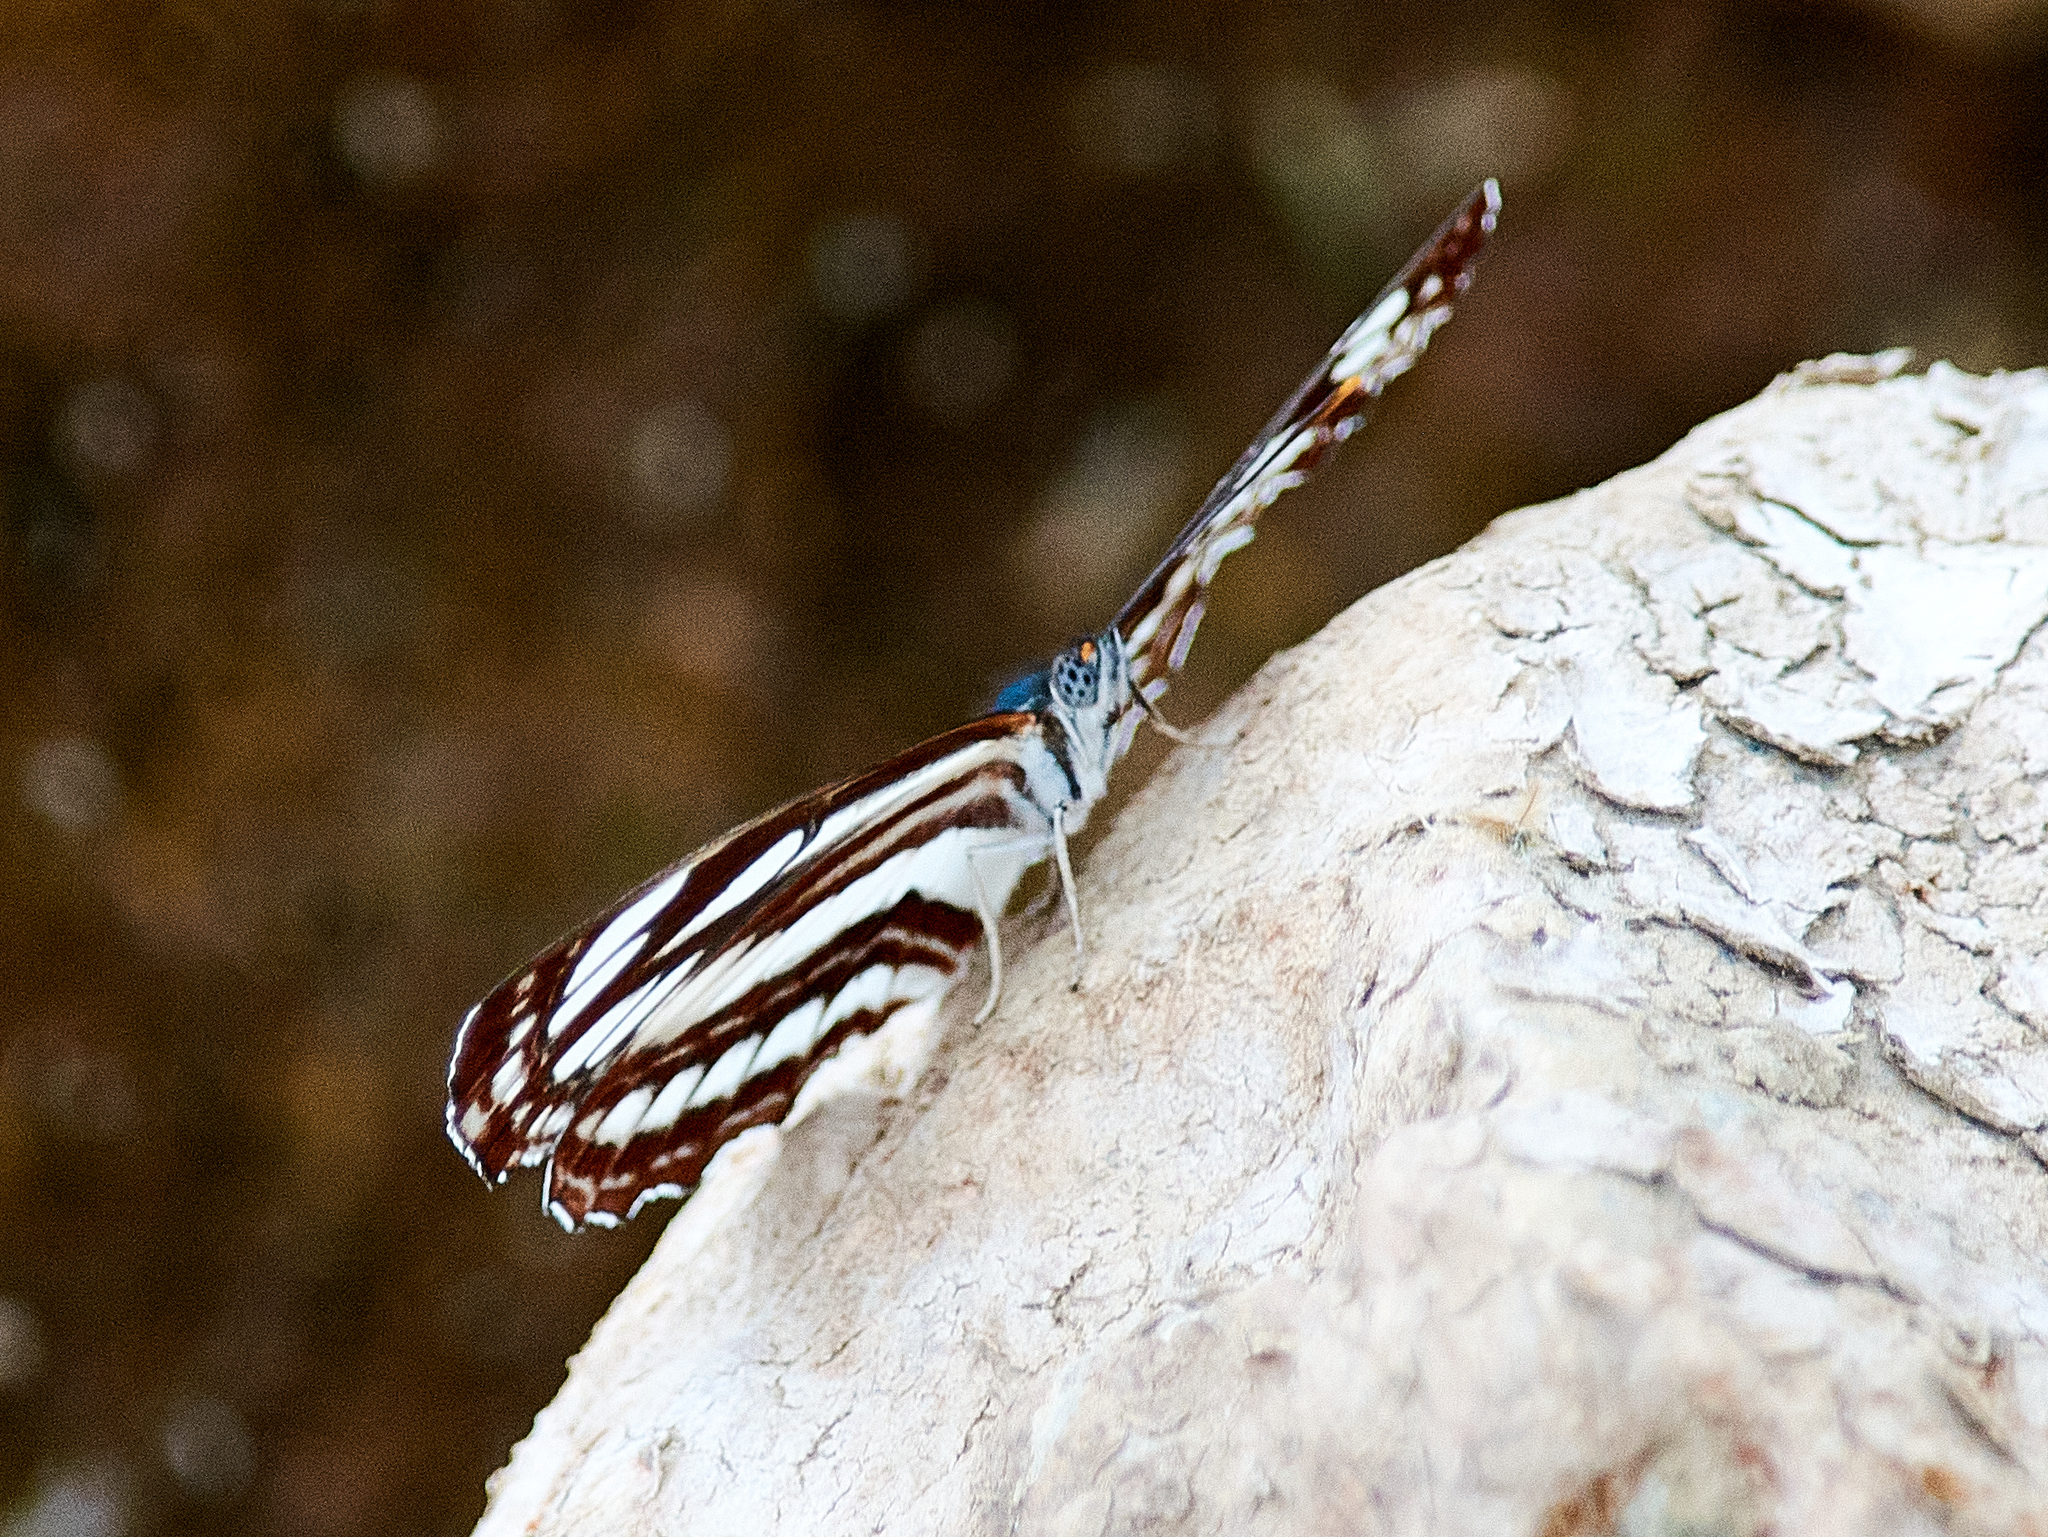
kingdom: Animalia
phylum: Arthropoda
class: Insecta
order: Lepidoptera
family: Nymphalidae
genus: Neptis
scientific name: Neptis sappho
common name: Common glider
